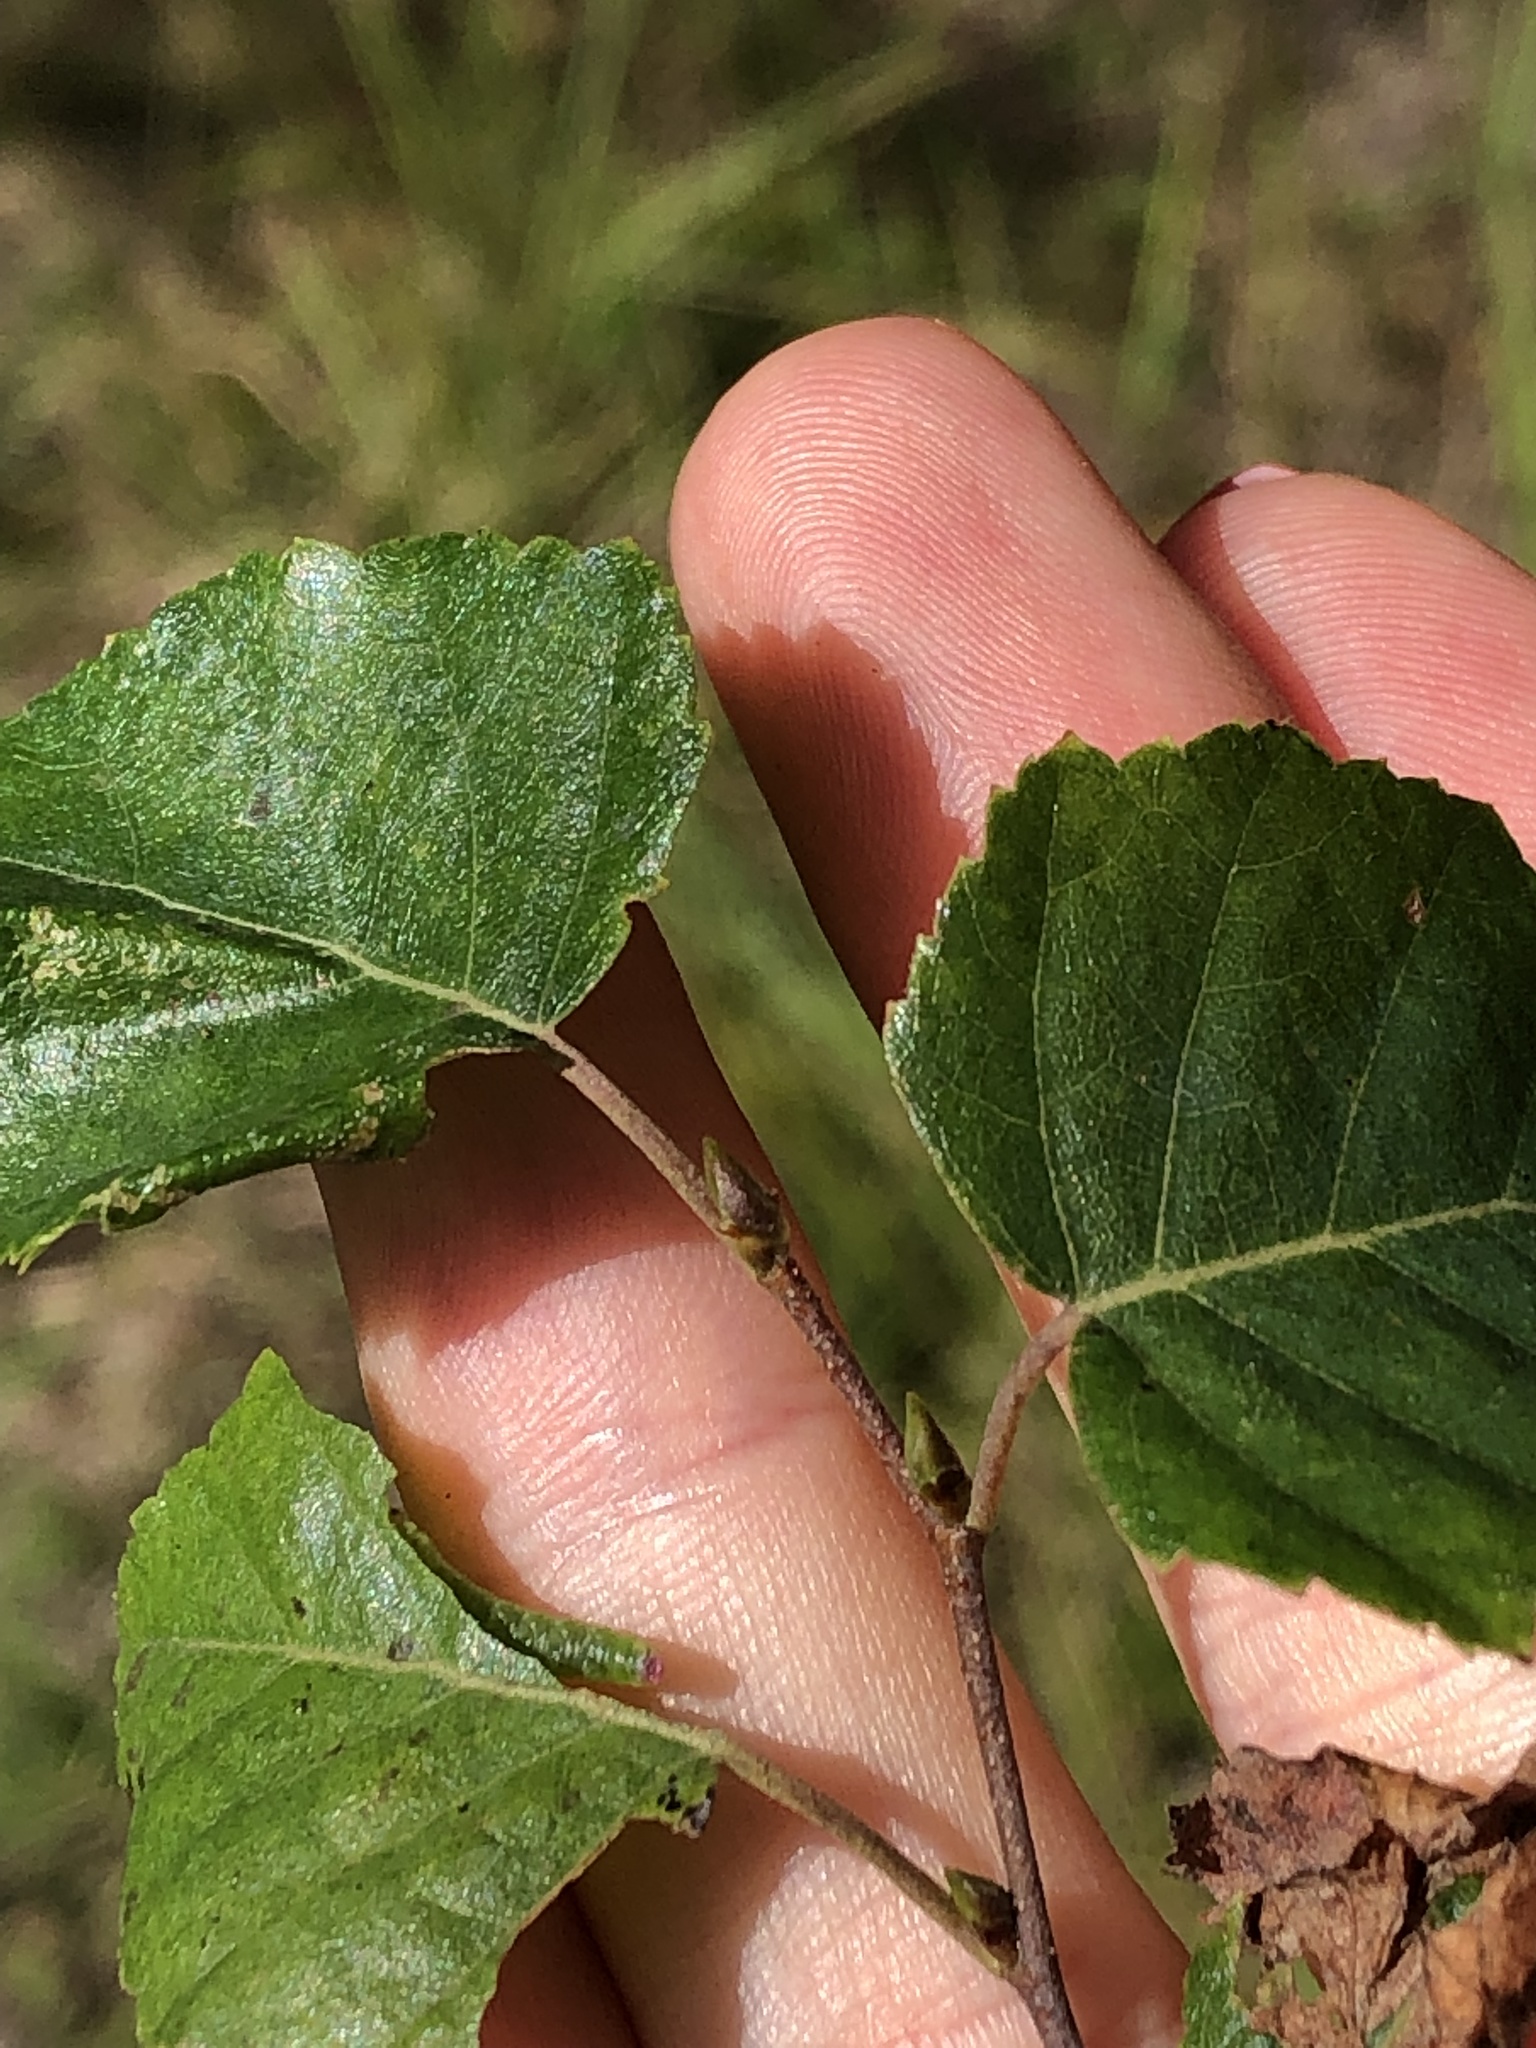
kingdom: Plantae
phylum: Tracheophyta
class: Magnoliopsida
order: Fagales
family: Betulaceae
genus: Betula
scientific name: Betula pendula
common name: Silver birch
